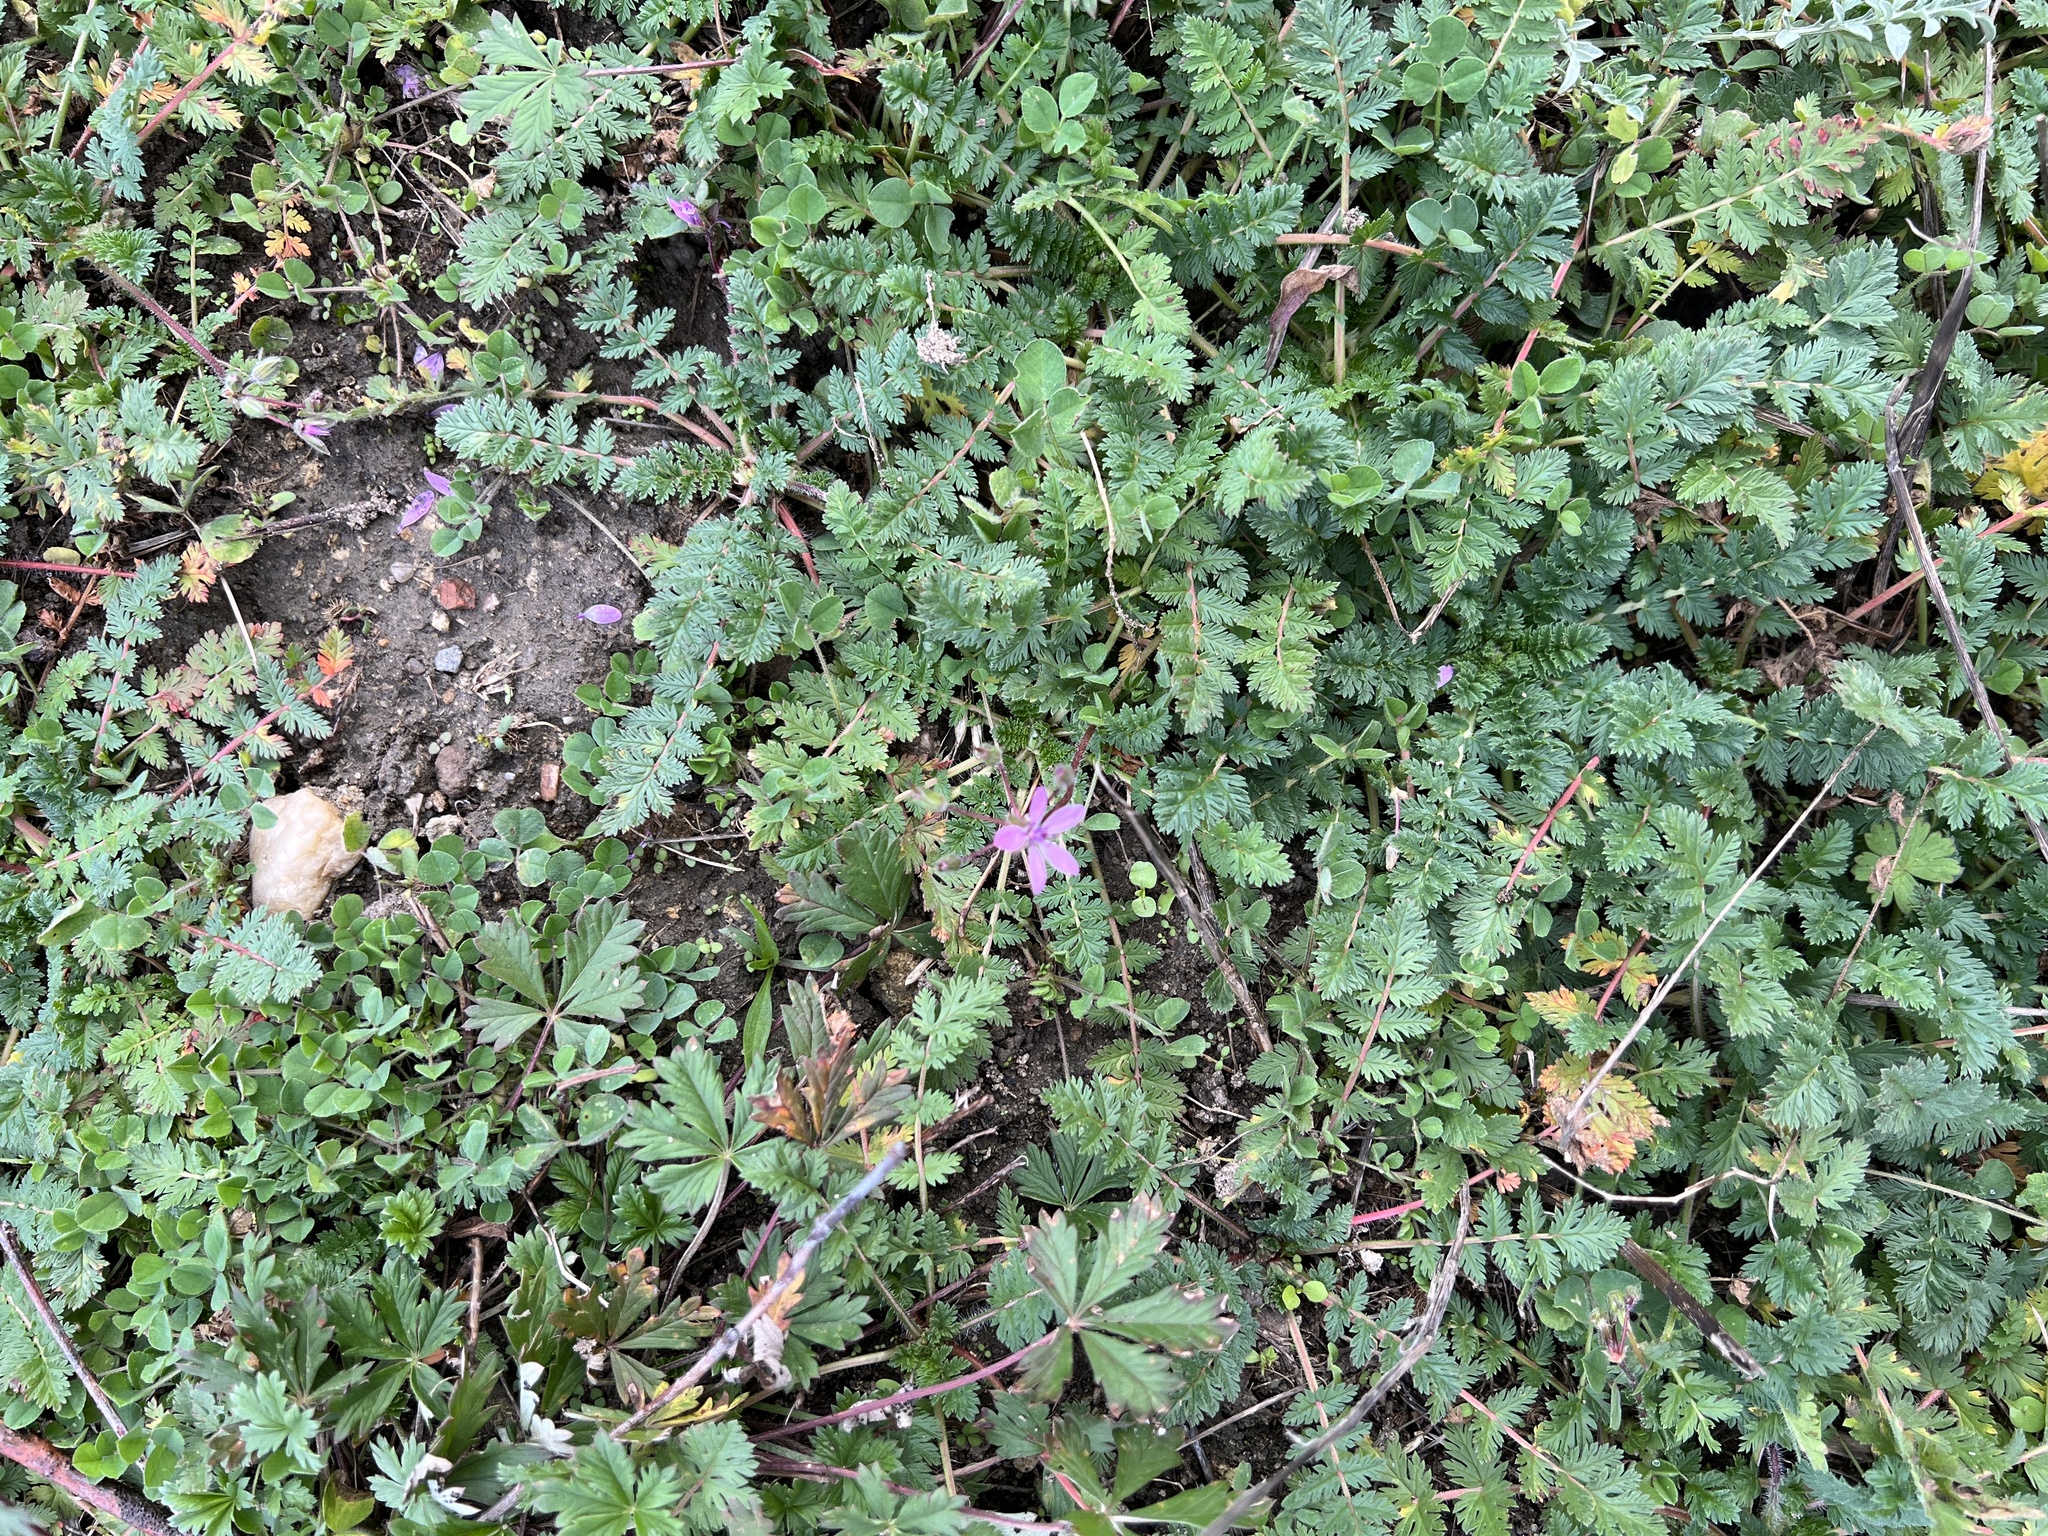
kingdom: Plantae
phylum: Tracheophyta
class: Magnoliopsida
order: Geraniales
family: Geraniaceae
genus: Erodium
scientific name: Erodium cicutarium
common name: Common stork's-bill
